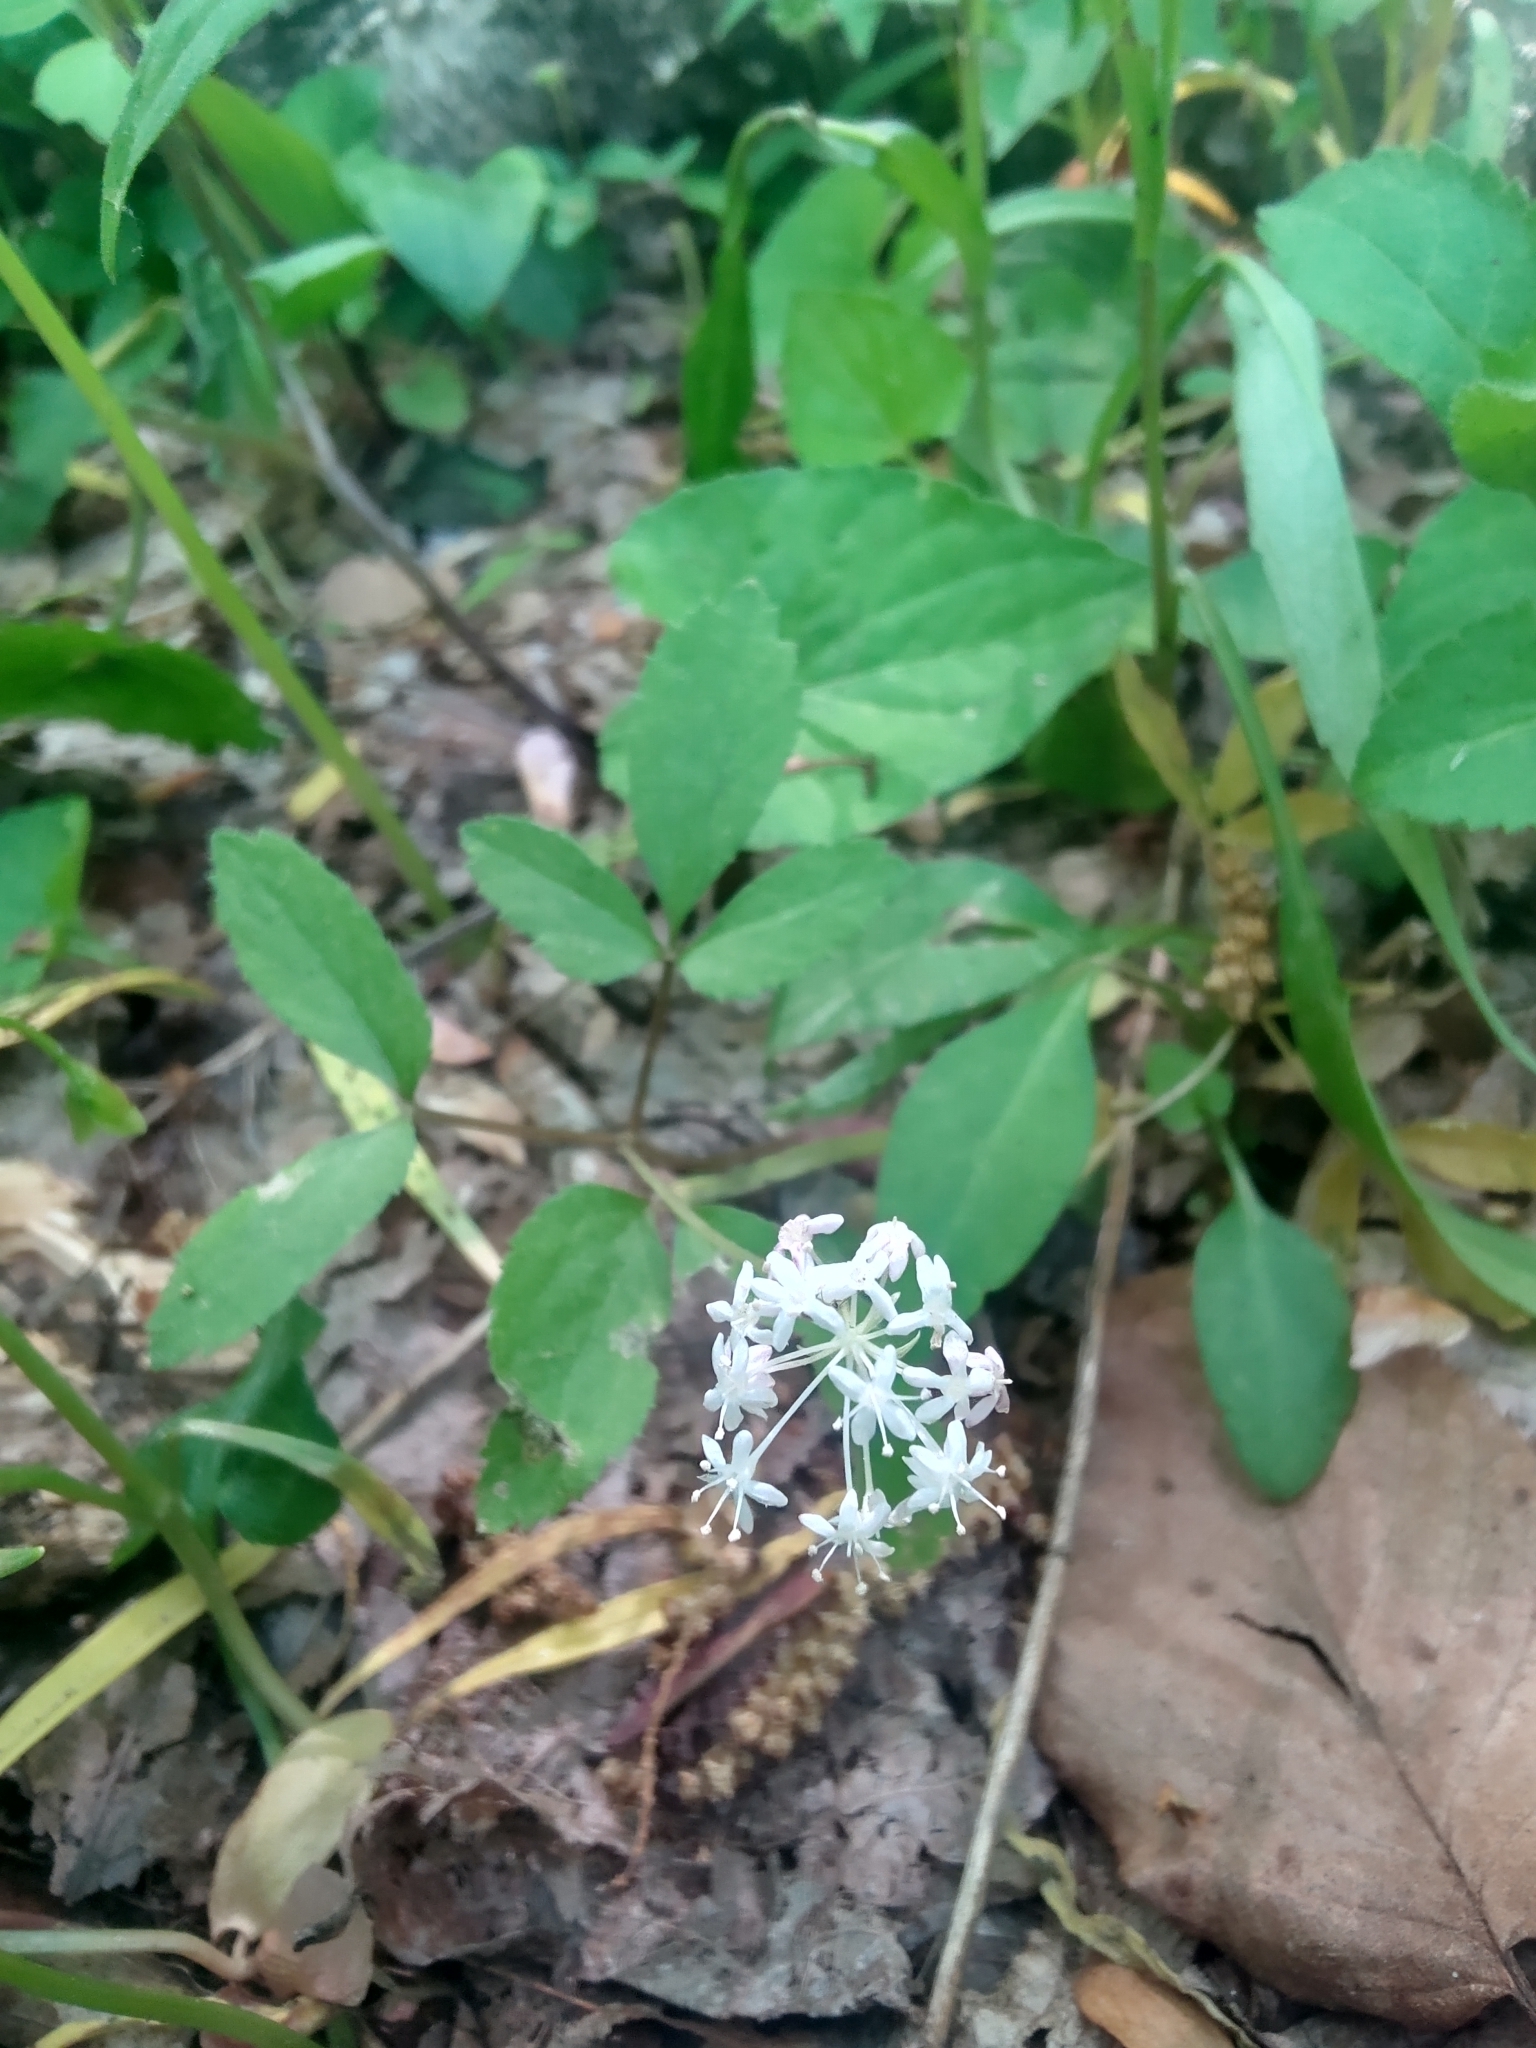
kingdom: Plantae
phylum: Tracheophyta
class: Magnoliopsida
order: Apiales
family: Araliaceae
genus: Panax
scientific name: Panax trifolius
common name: Dwarf ginseng
